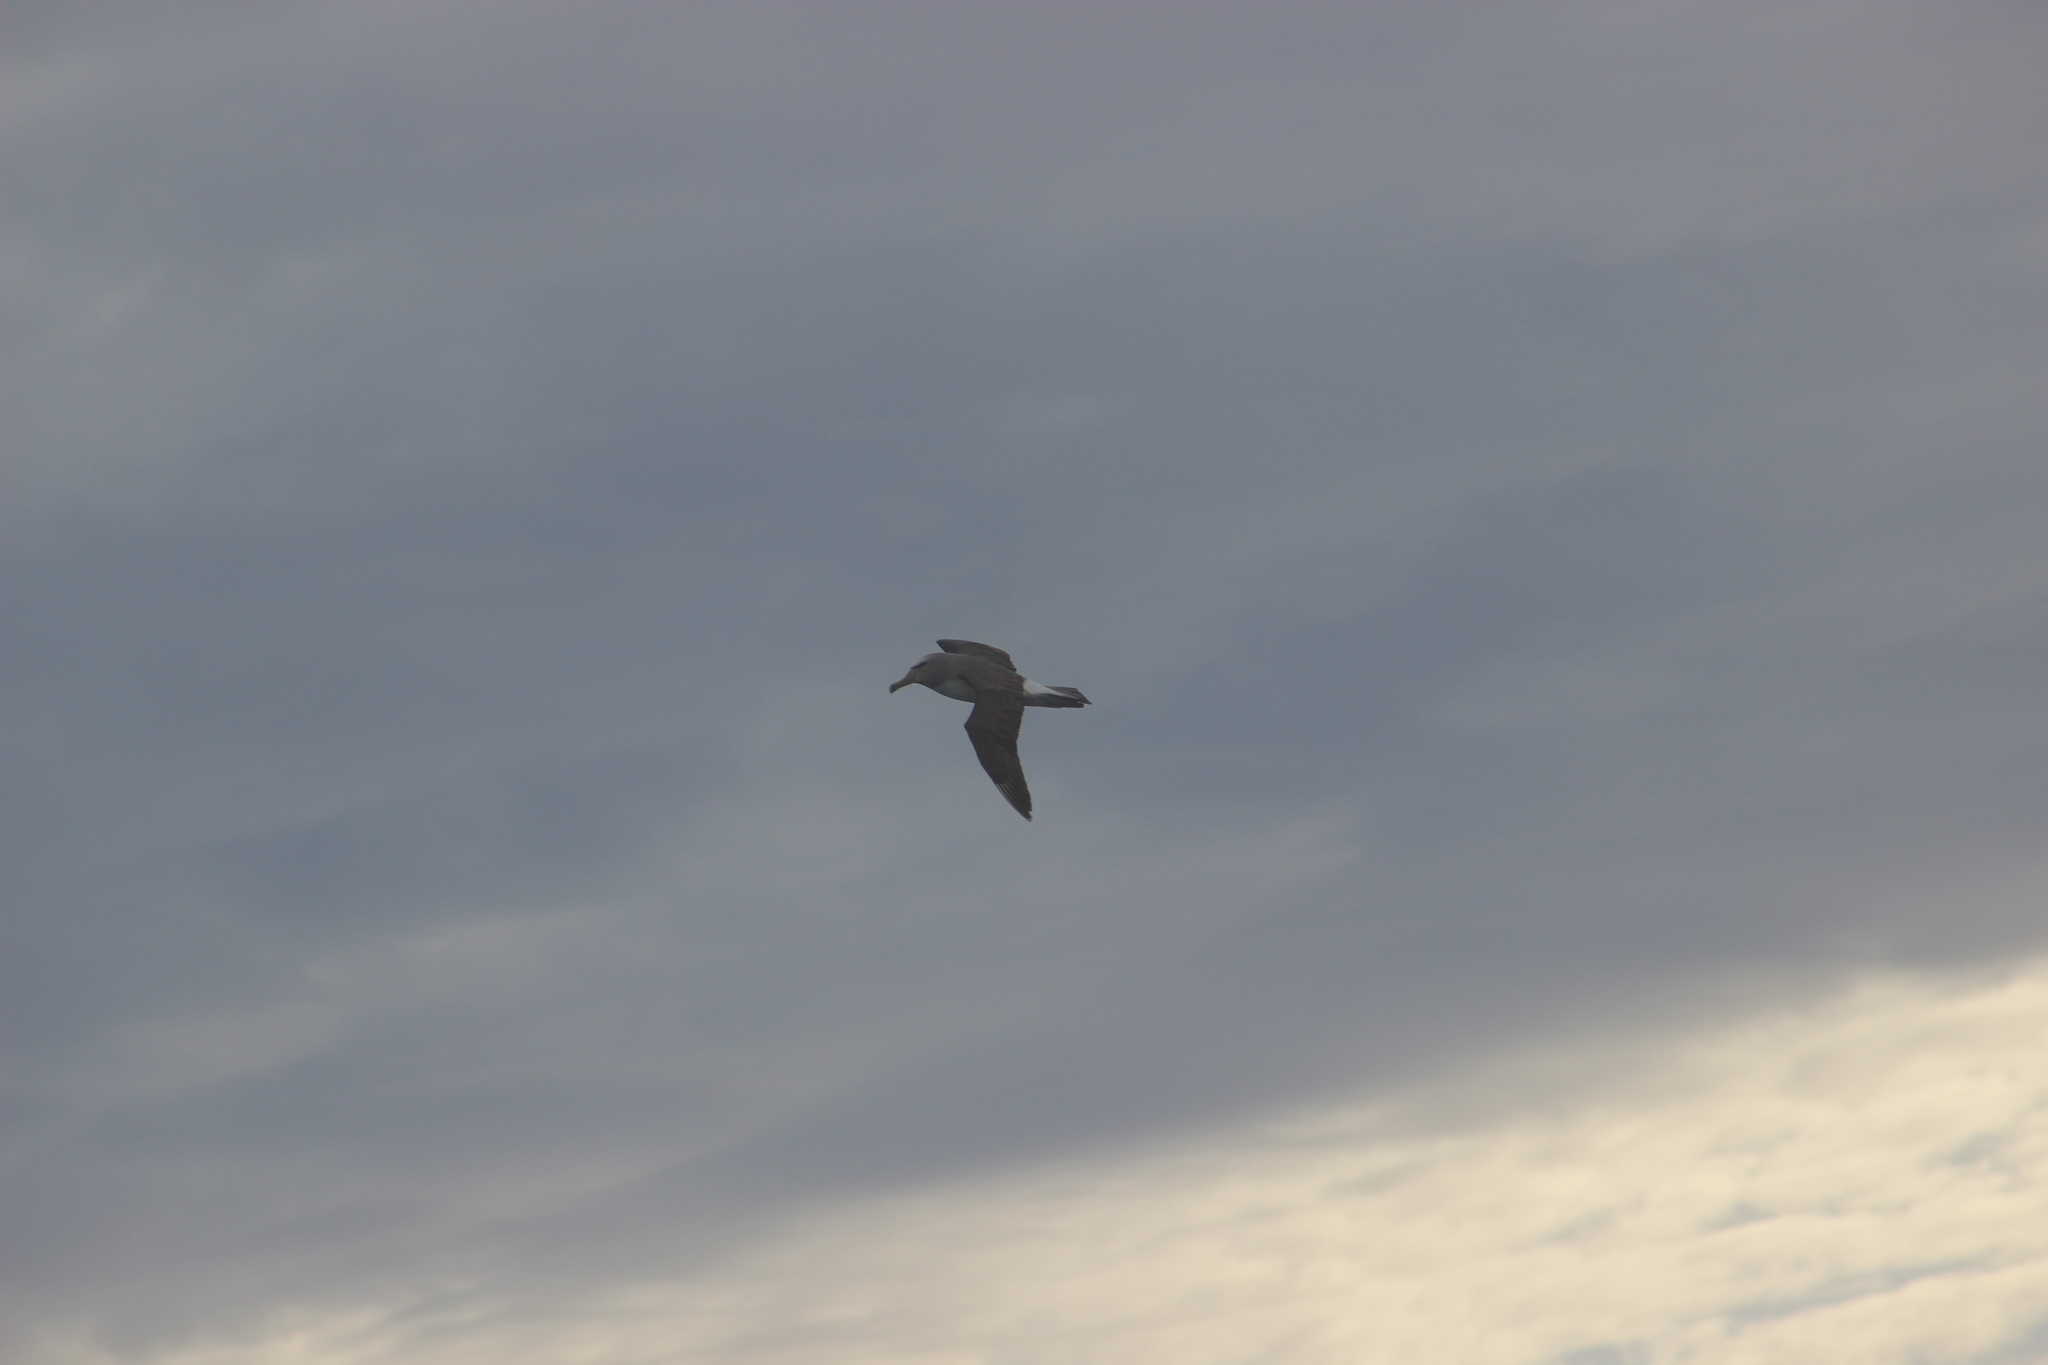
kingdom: Animalia
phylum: Chordata
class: Aves
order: Procellariiformes
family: Diomedeidae
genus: Thalassarche
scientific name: Thalassarche salvini
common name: Salvin's albatross
